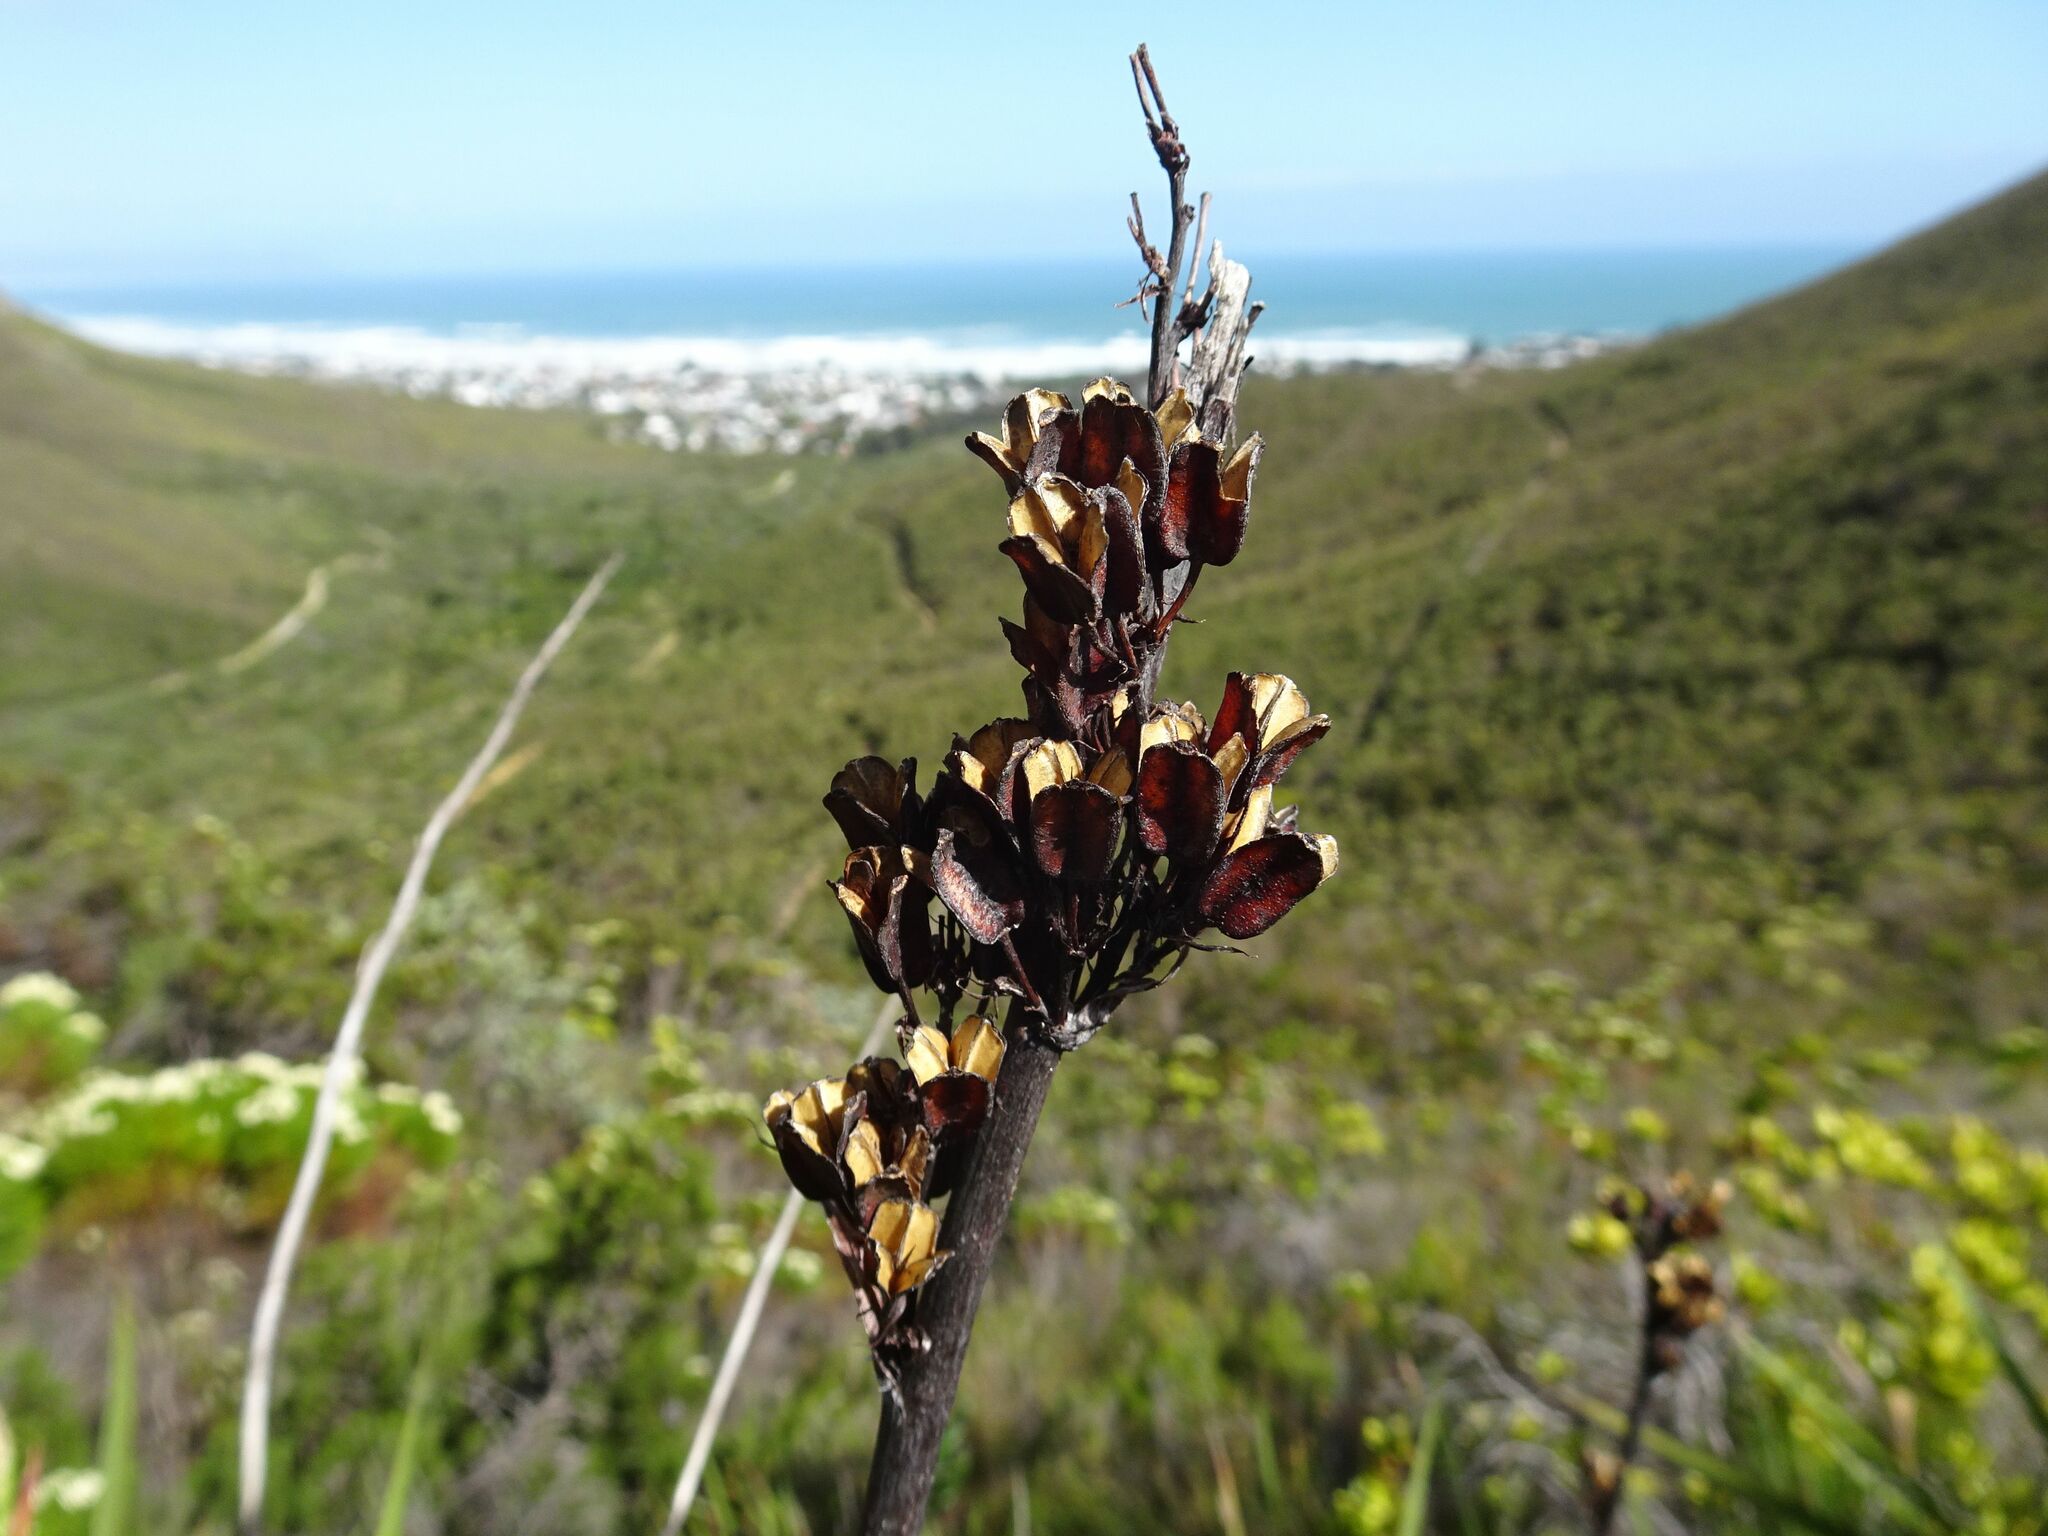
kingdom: Plantae
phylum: Tracheophyta
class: Liliopsida
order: Asparagales
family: Iridaceae
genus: Aristea
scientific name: Aristea capitata
